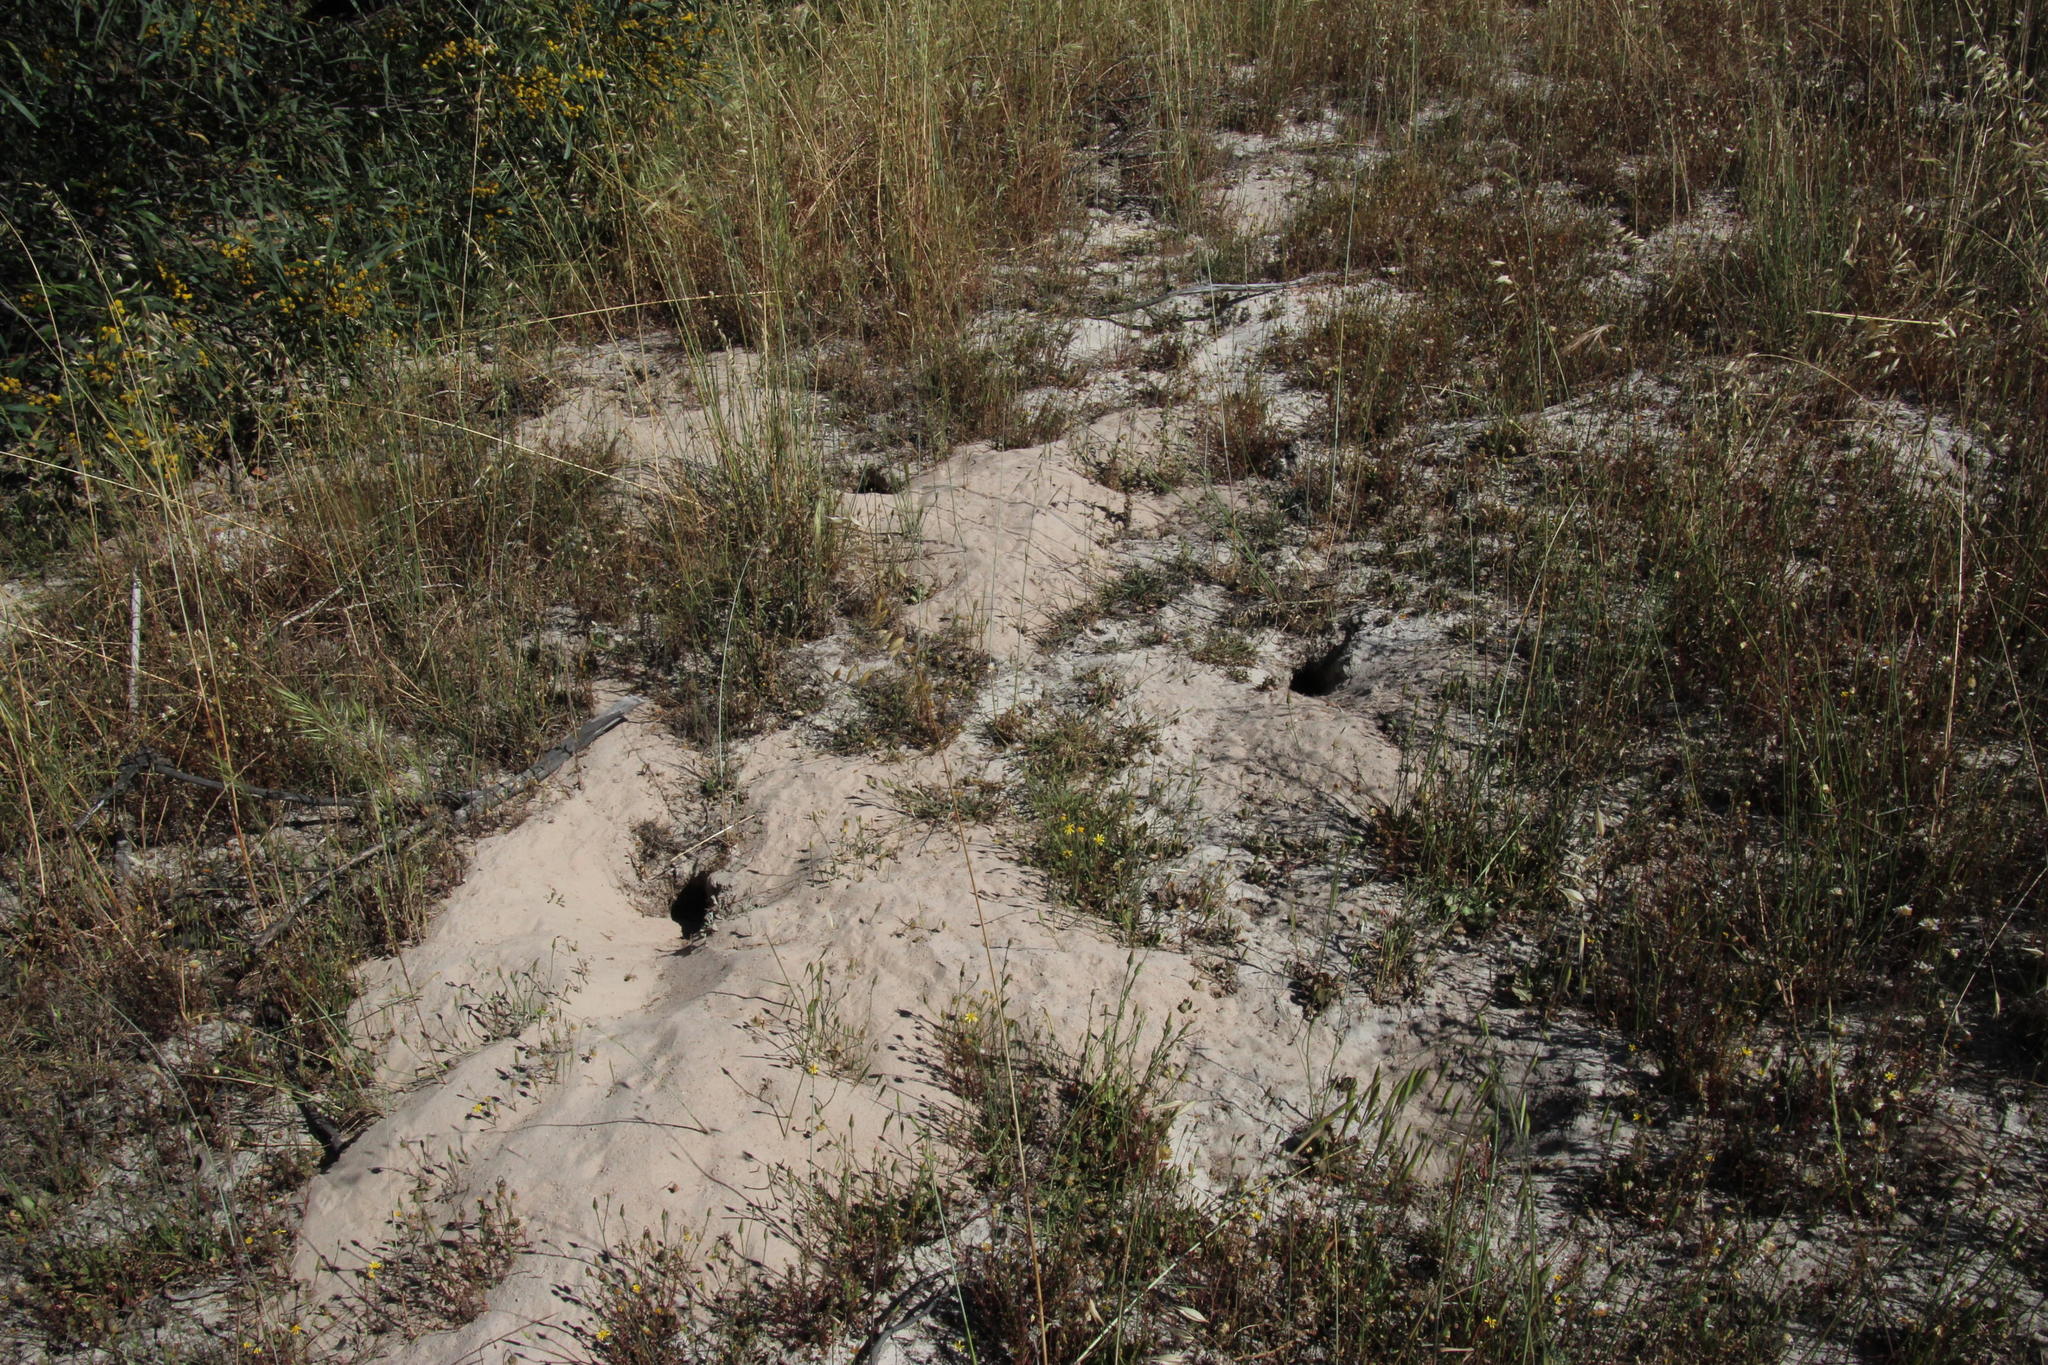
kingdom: Animalia
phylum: Chordata
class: Mammalia
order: Rodentia
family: Muridae
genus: Gerbilliscus
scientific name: Gerbilliscus afer
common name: Cape gerbil
